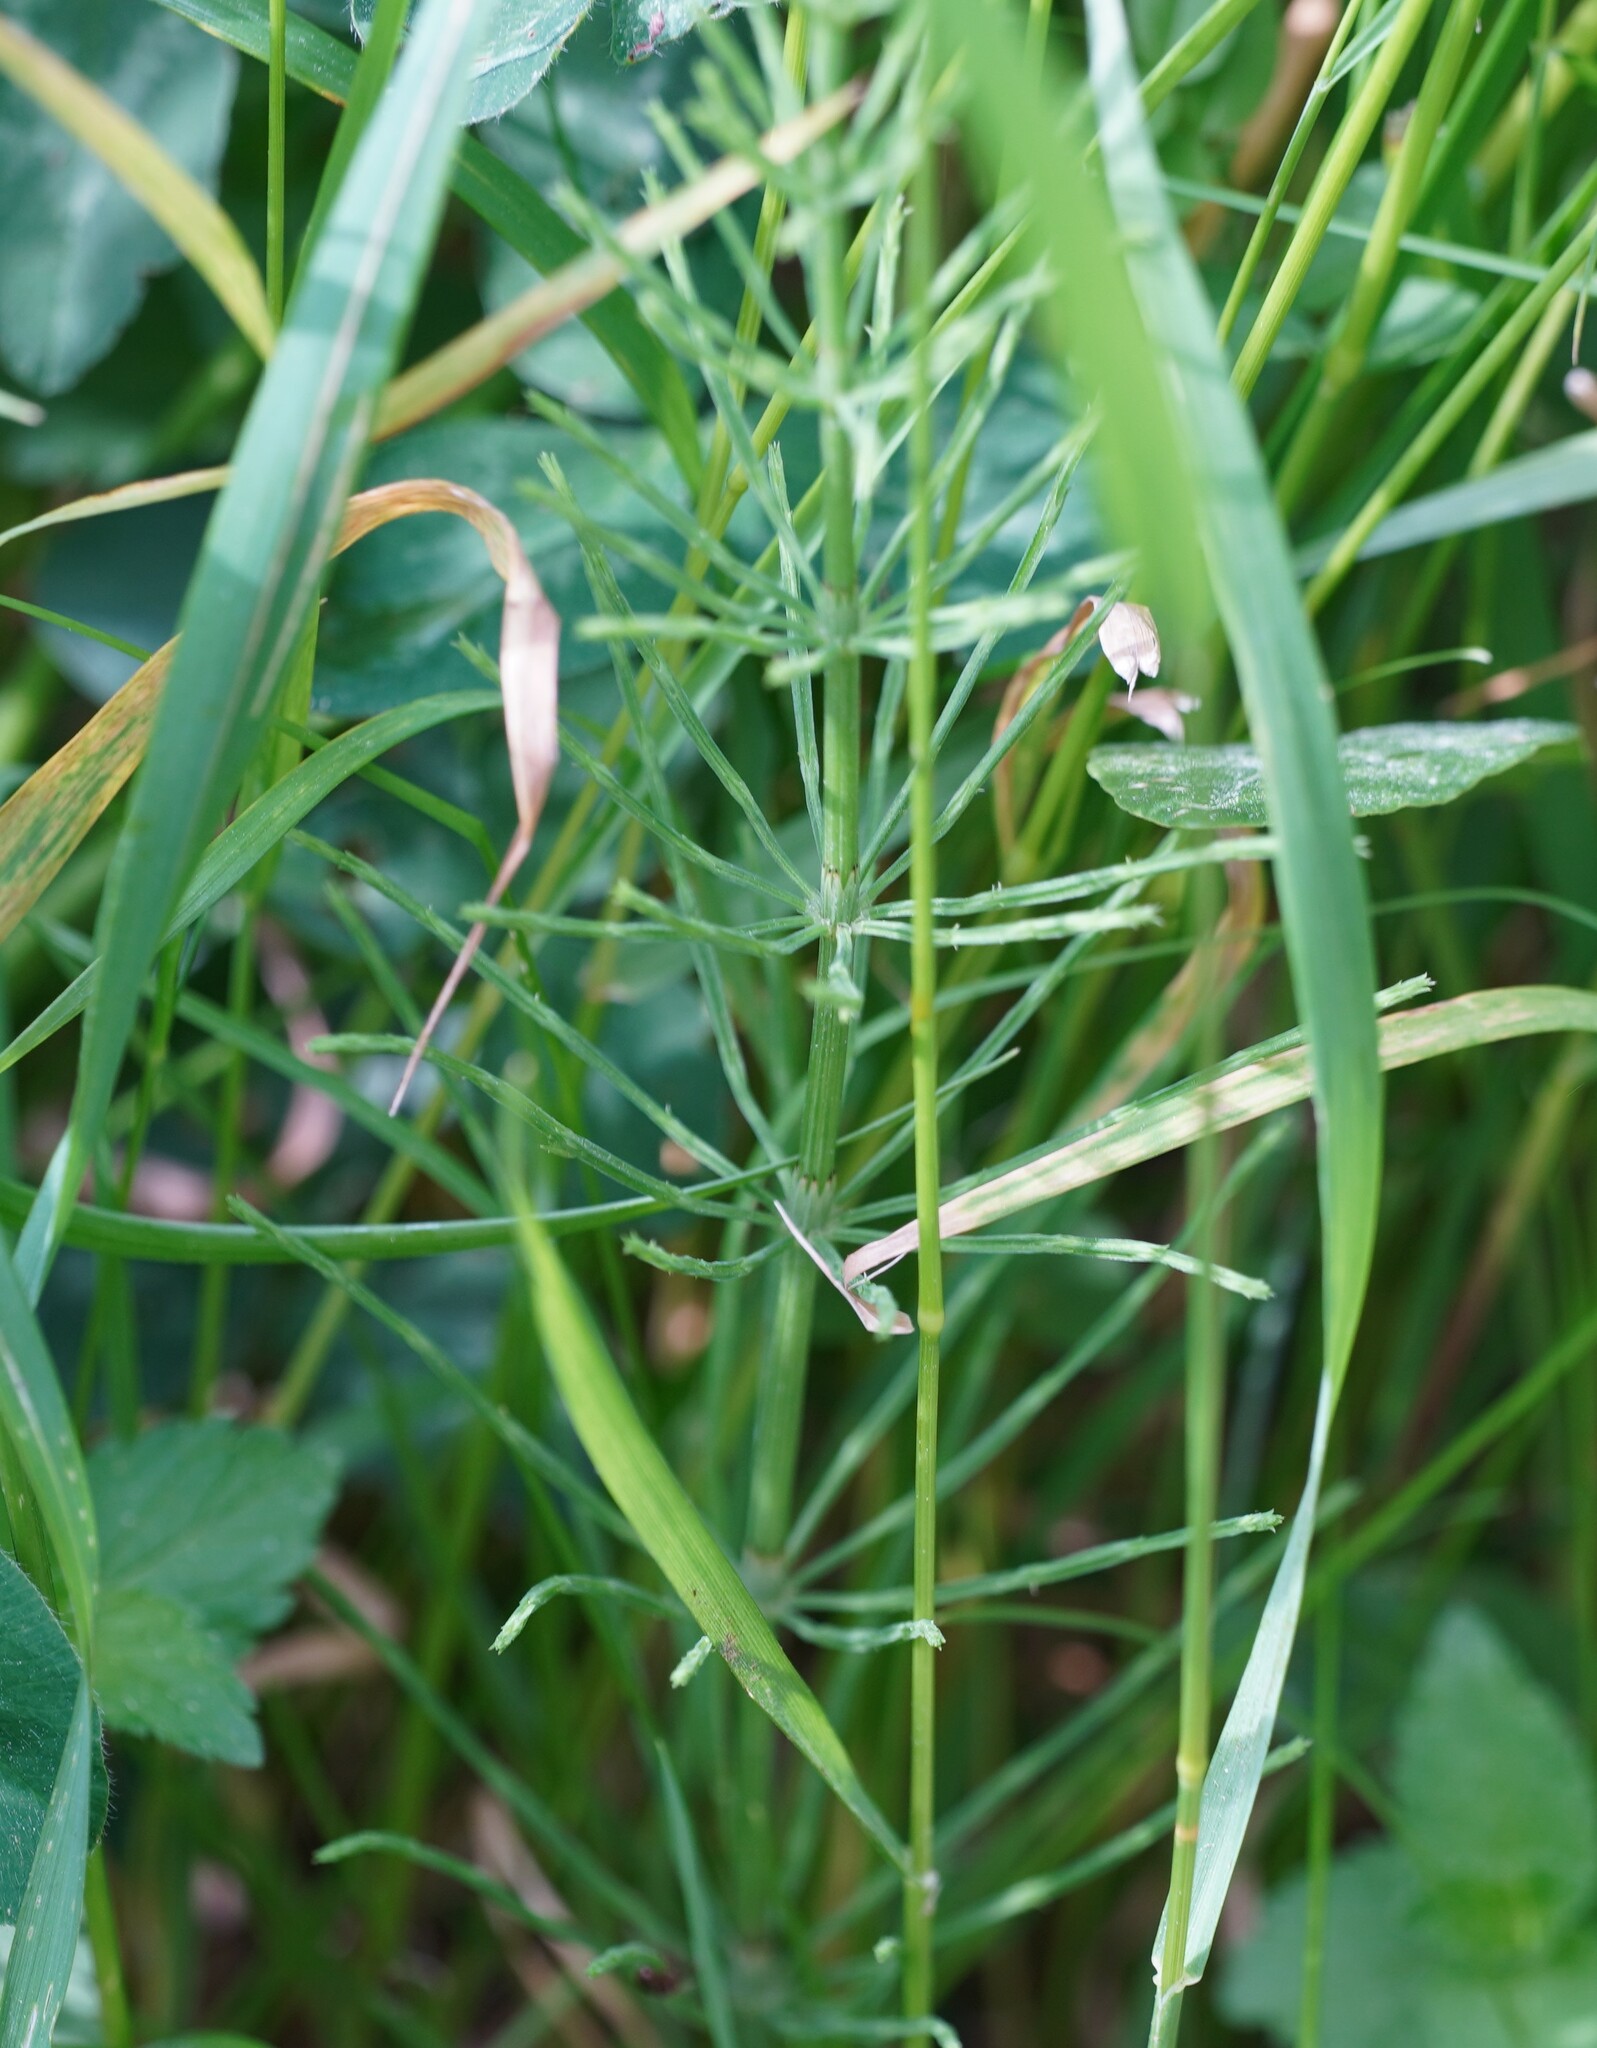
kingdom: Plantae
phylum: Tracheophyta
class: Polypodiopsida
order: Equisetales
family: Equisetaceae
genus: Equisetum
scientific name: Equisetum arvense
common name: Field horsetail
